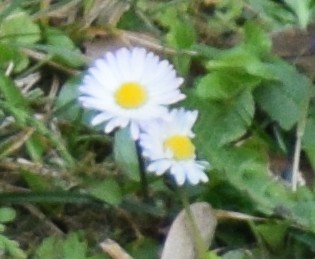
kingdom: Plantae
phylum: Tracheophyta
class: Magnoliopsida
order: Asterales
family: Asteraceae
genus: Bellis
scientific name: Bellis perennis
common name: Lawndaisy
